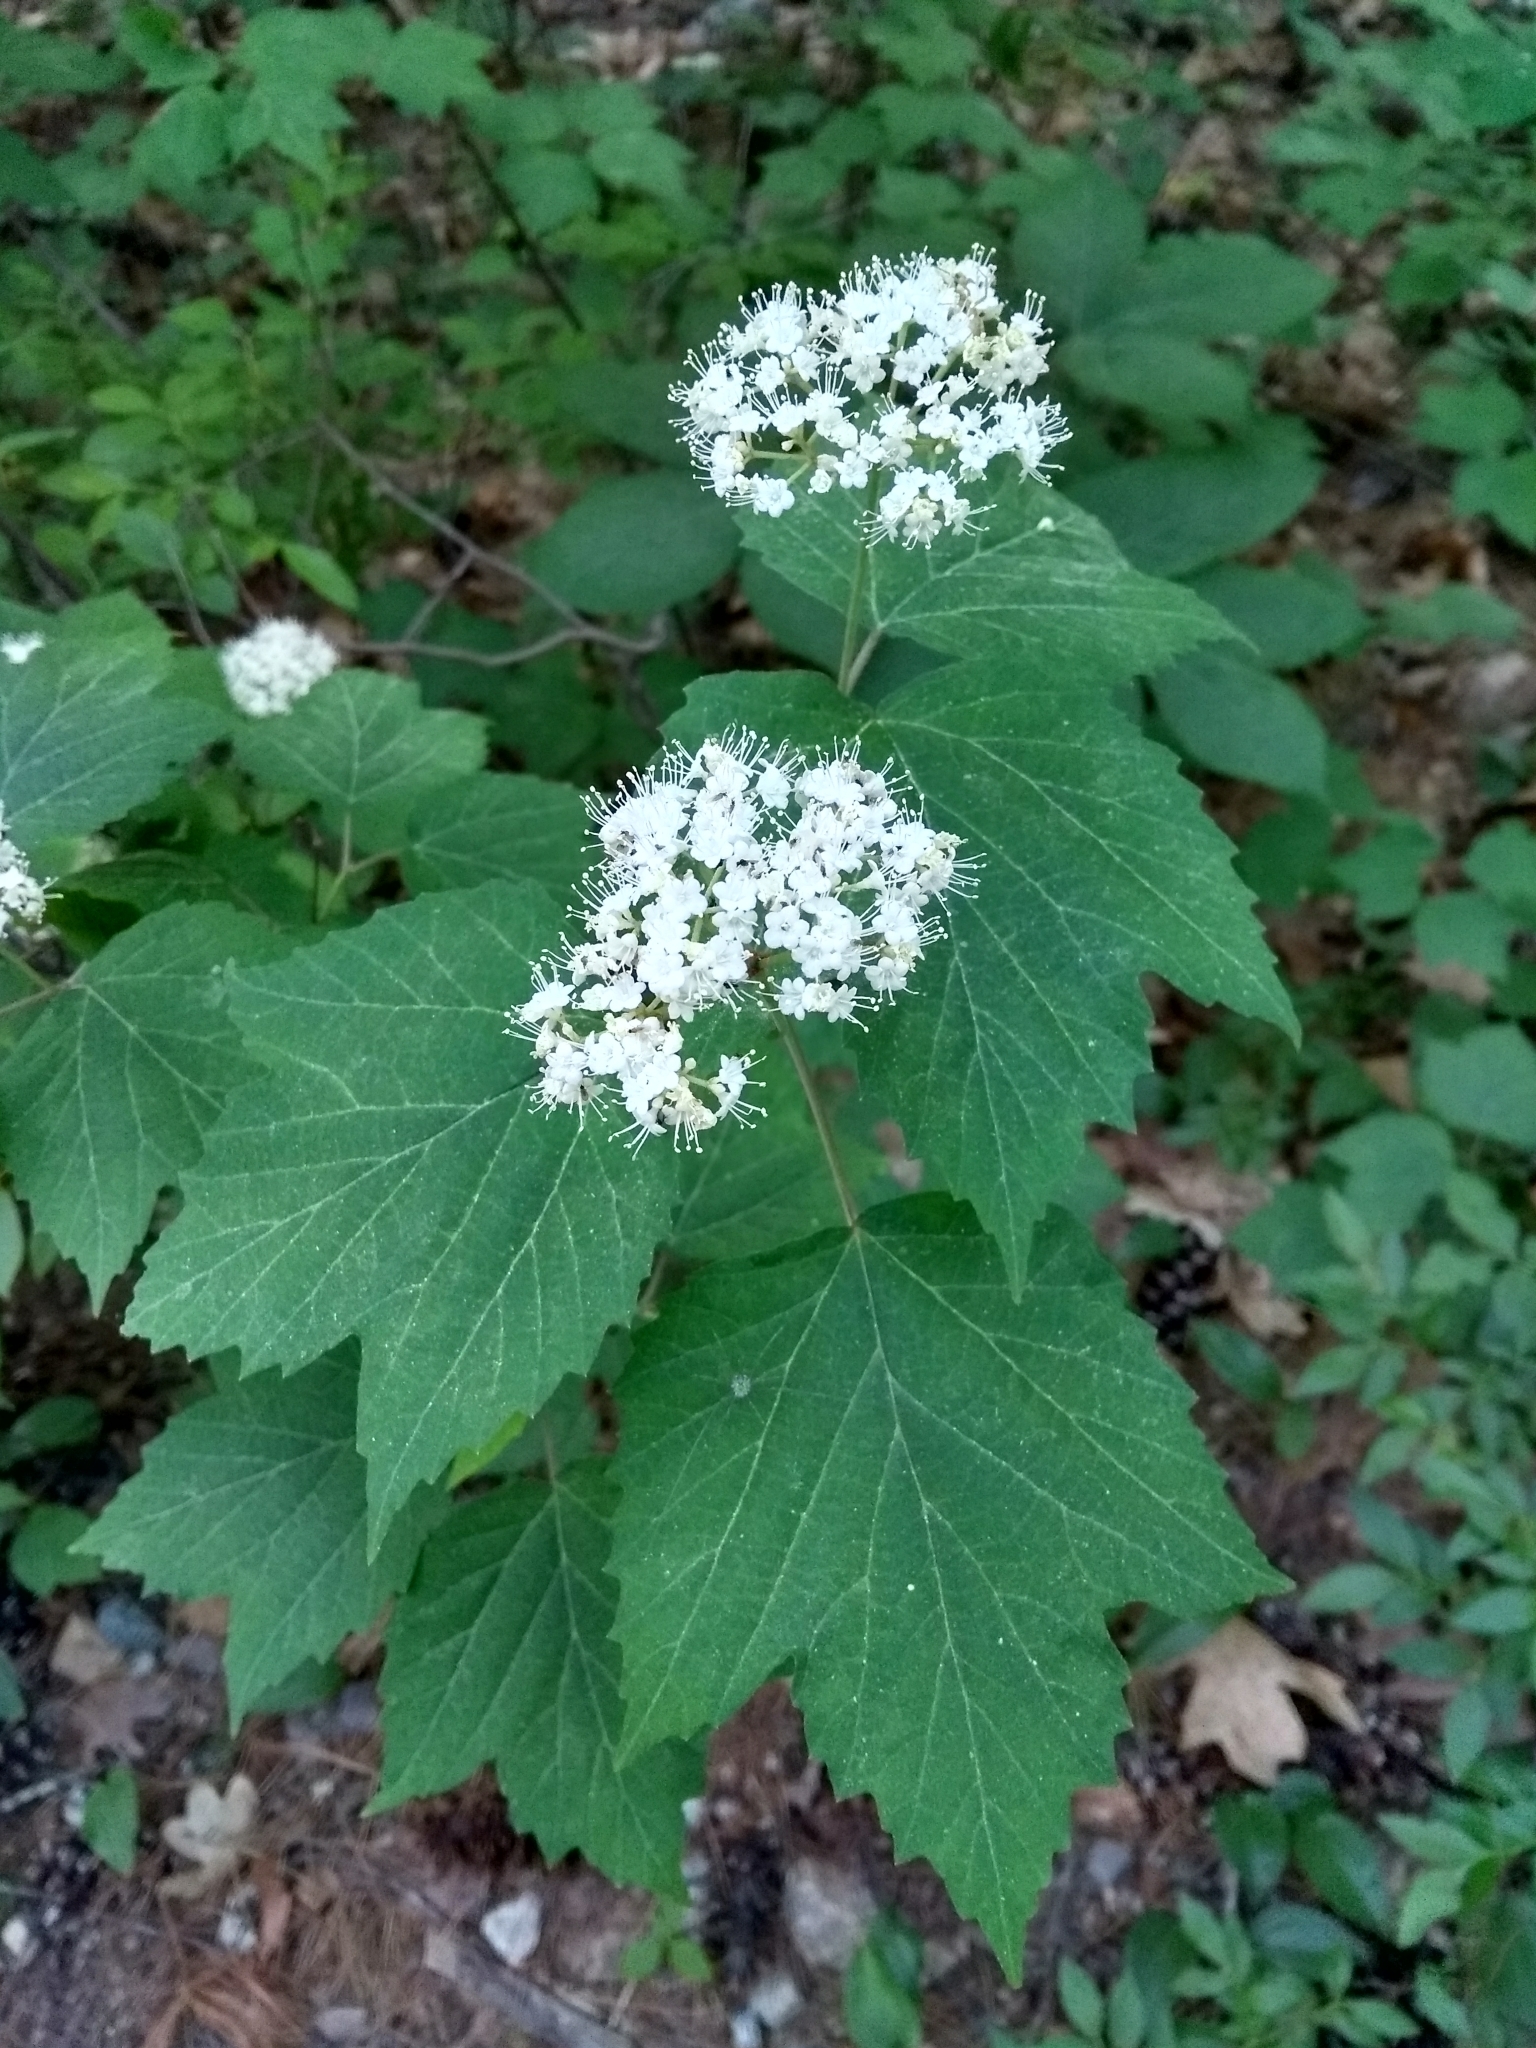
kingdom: Plantae
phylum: Tracheophyta
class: Magnoliopsida
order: Dipsacales
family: Viburnaceae
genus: Viburnum
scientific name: Viburnum acerifolium
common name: Dockmackie
